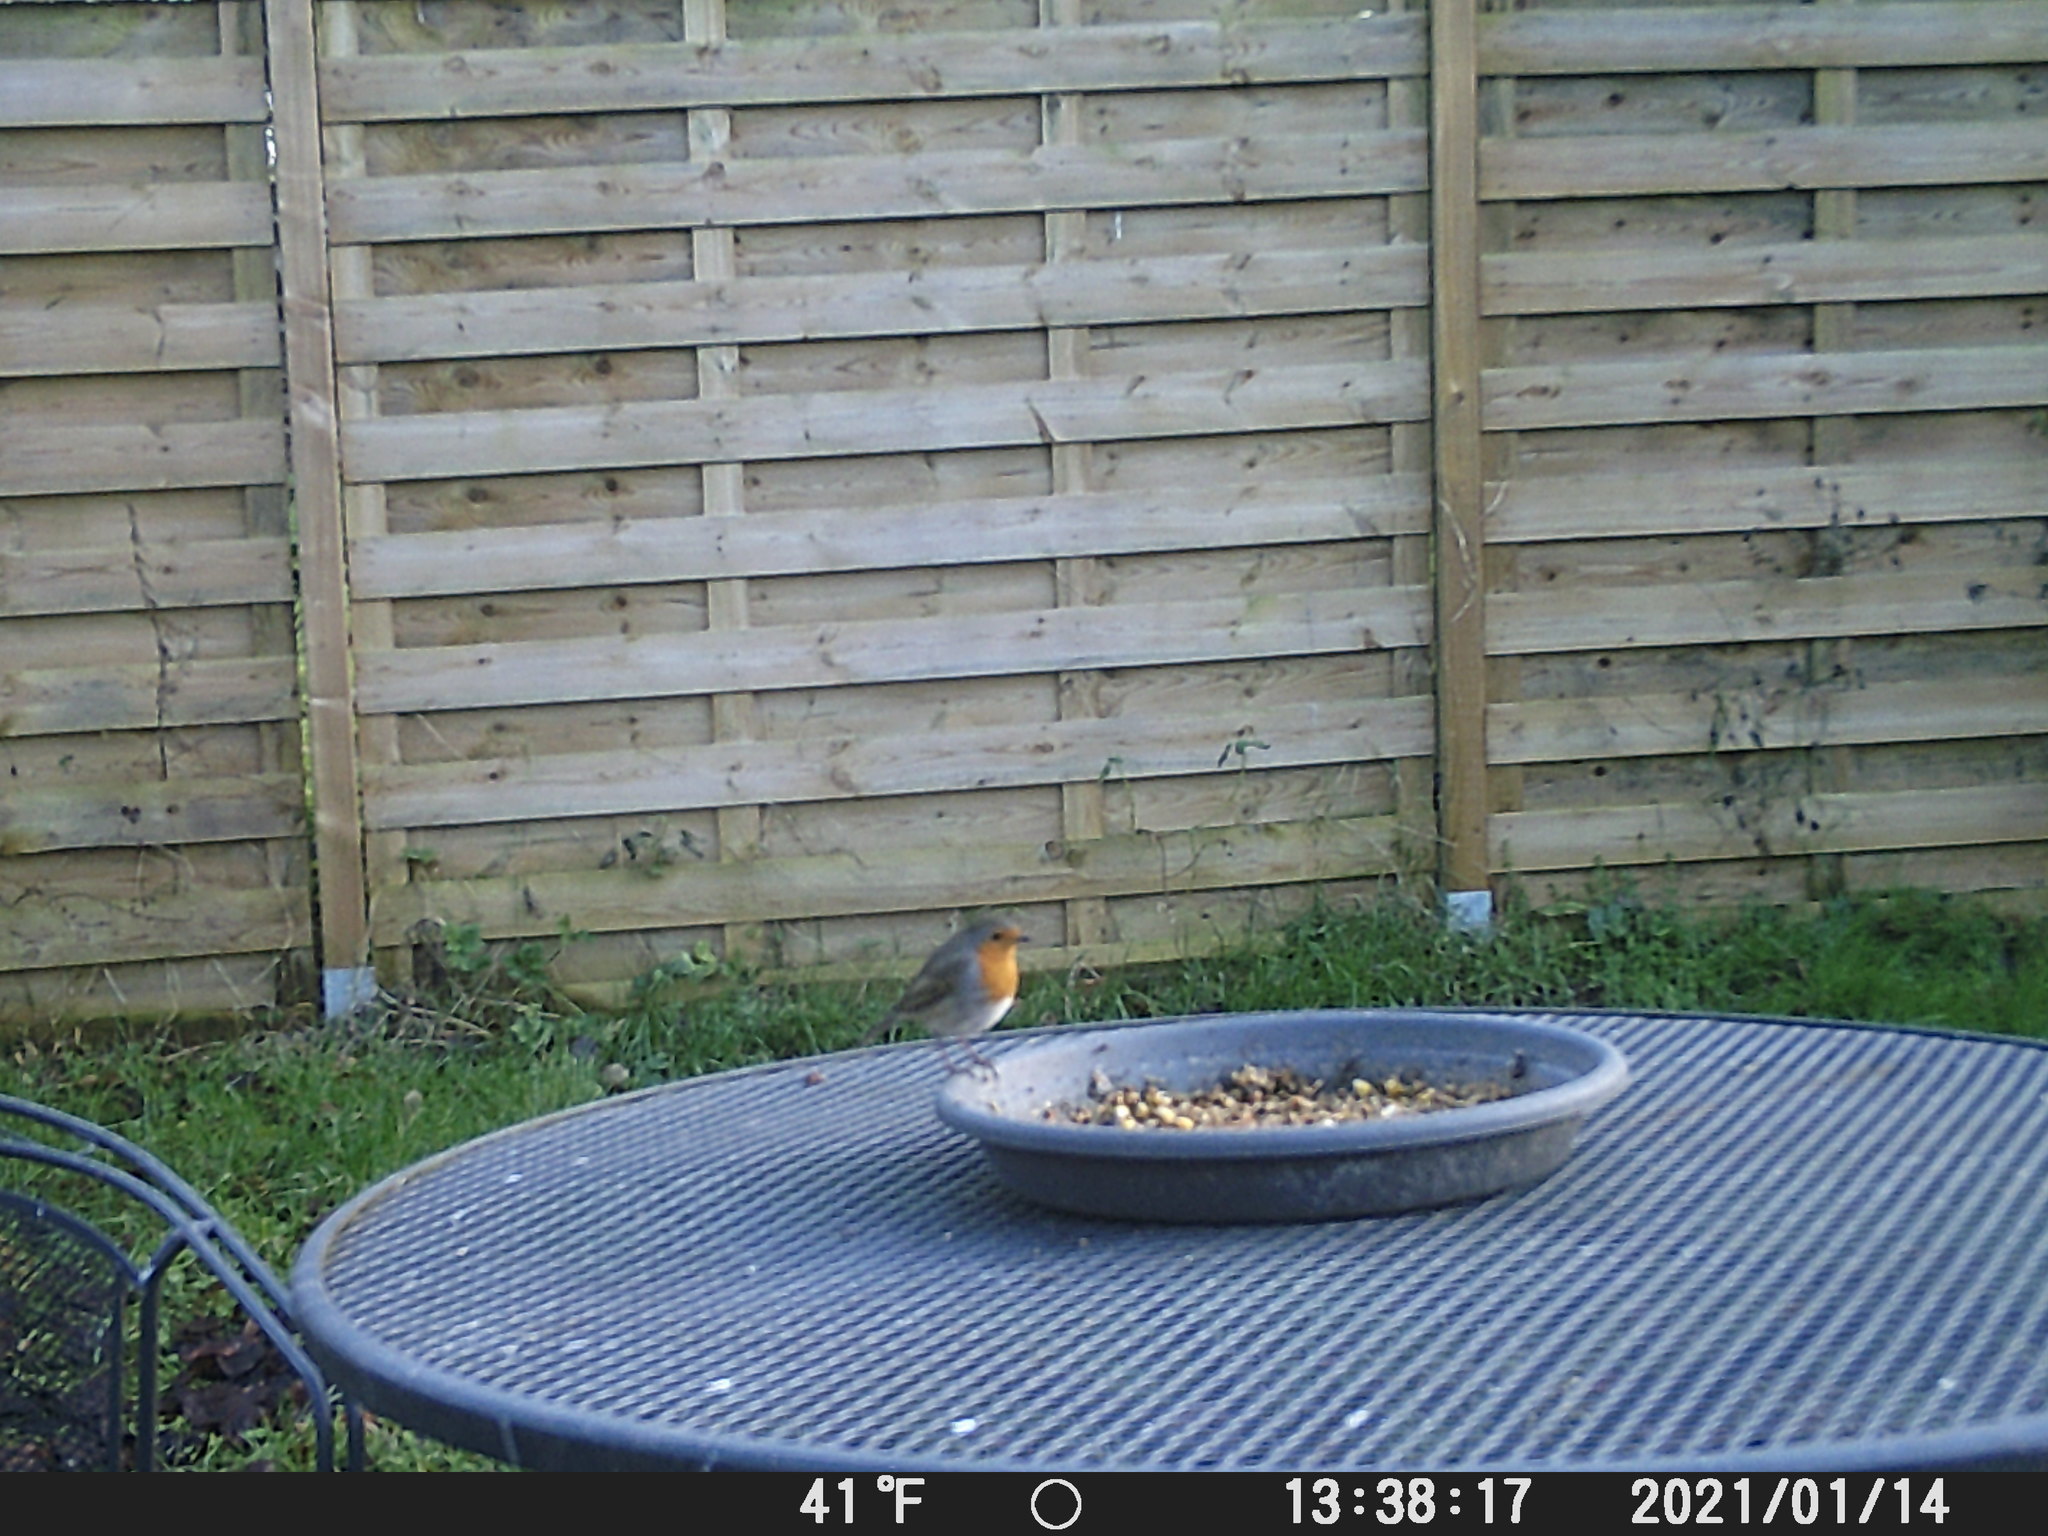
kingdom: Animalia
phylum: Chordata
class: Aves
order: Passeriformes
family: Muscicapidae
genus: Erithacus
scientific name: Erithacus rubecula
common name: European robin
